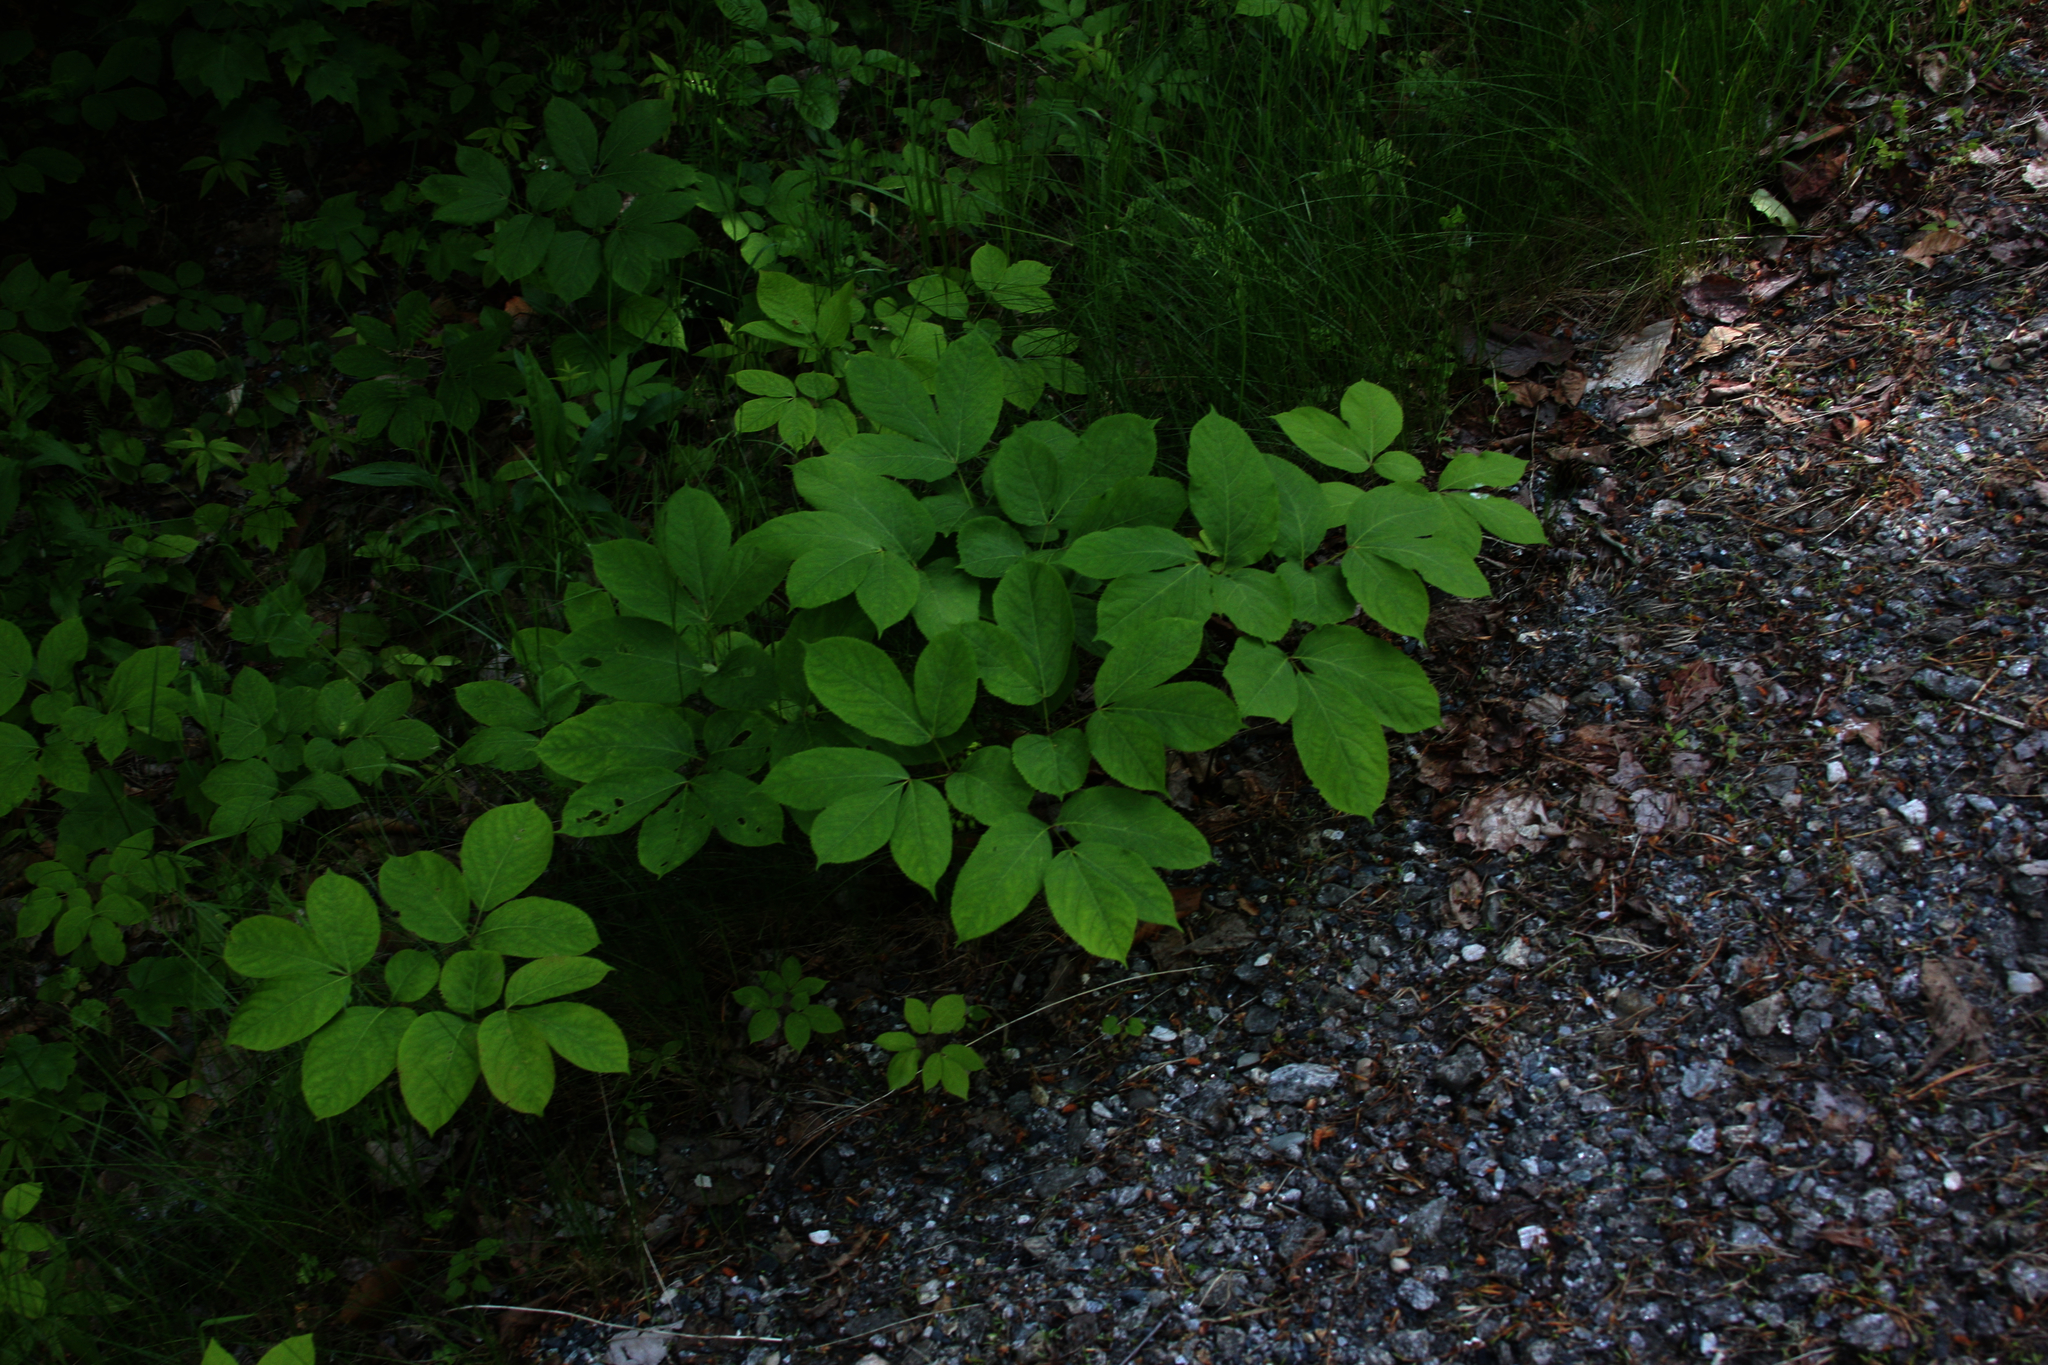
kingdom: Plantae
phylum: Tracheophyta
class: Magnoliopsida
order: Apiales
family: Araliaceae
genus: Aralia
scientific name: Aralia nudicaulis
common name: Wild sarsaparilla
